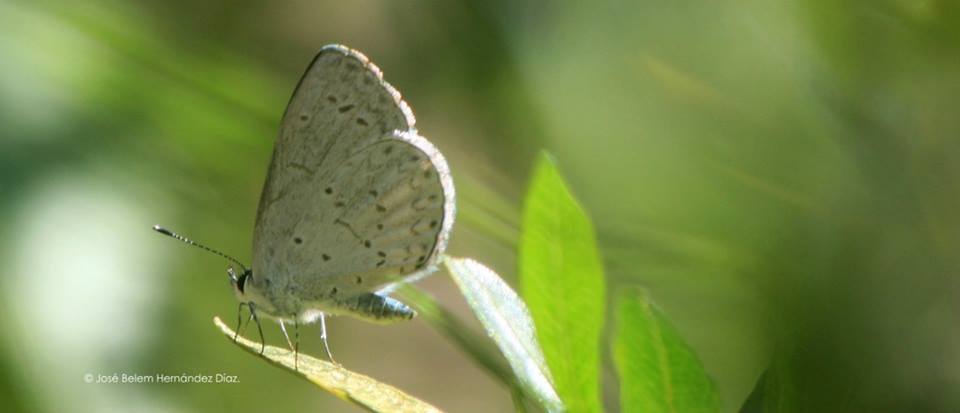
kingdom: Animalia
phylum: Arthropoda
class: Insecta
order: Lepidoptera
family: Lycaenidae
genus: Celastrina
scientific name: Celastrina ladon
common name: Spring azure
